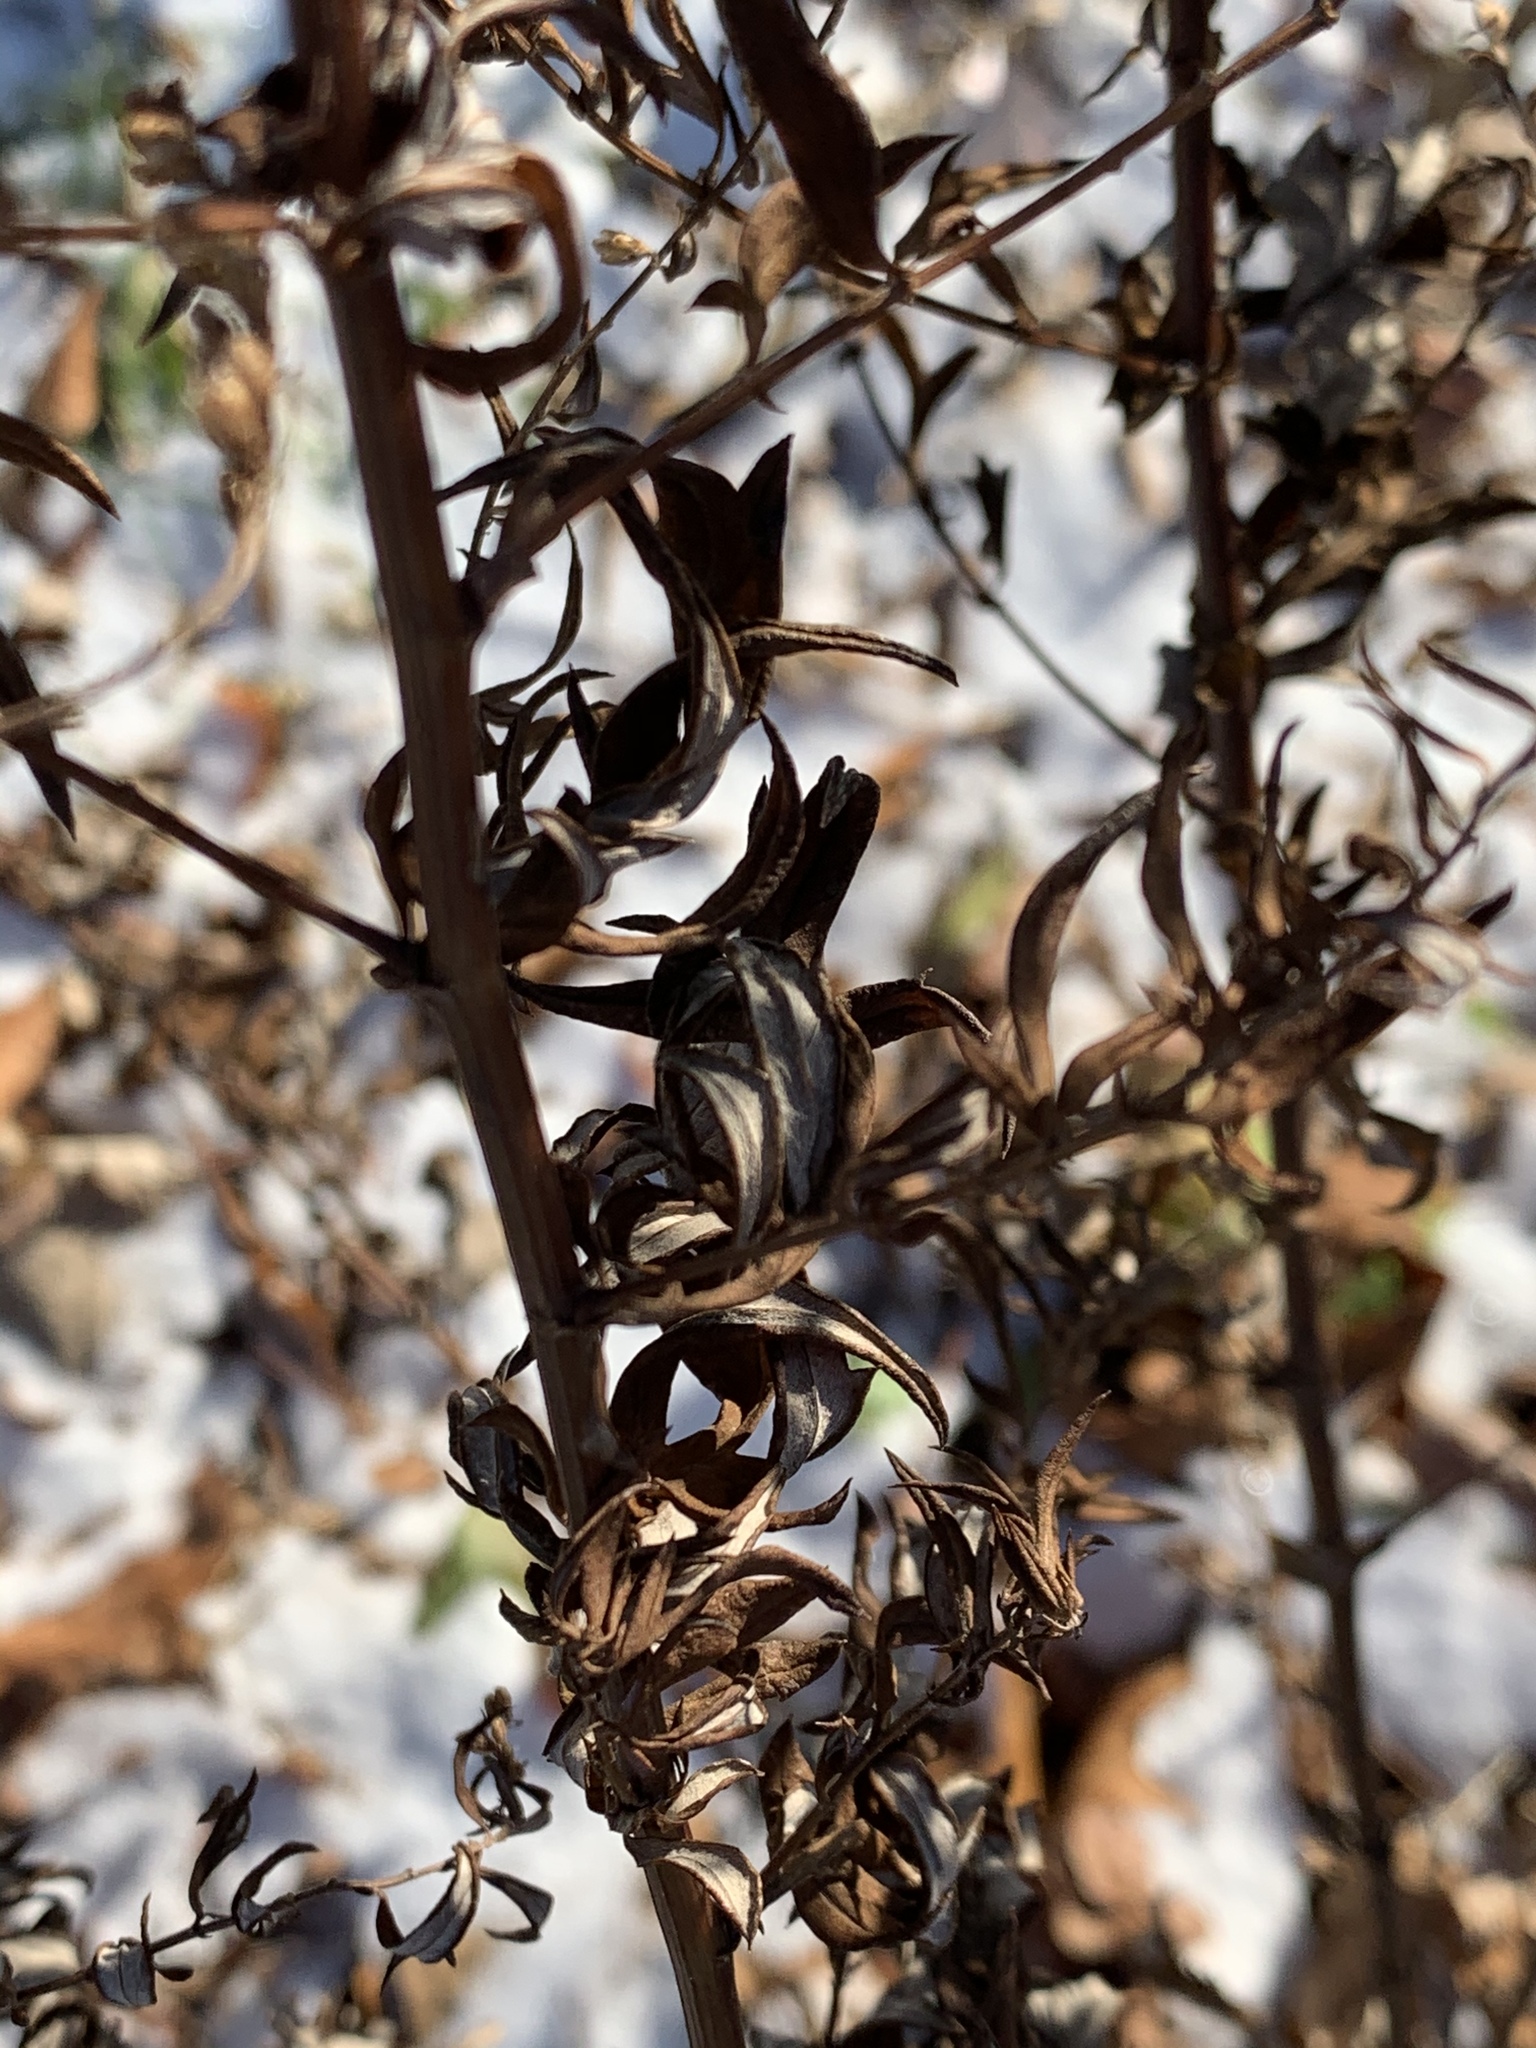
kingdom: Plantae
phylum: Tracheophyta
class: Magnoliopsida
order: Asterales
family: Asteraceae
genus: Artemisia
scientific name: Artemisia vulgaris
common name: Mugwort
